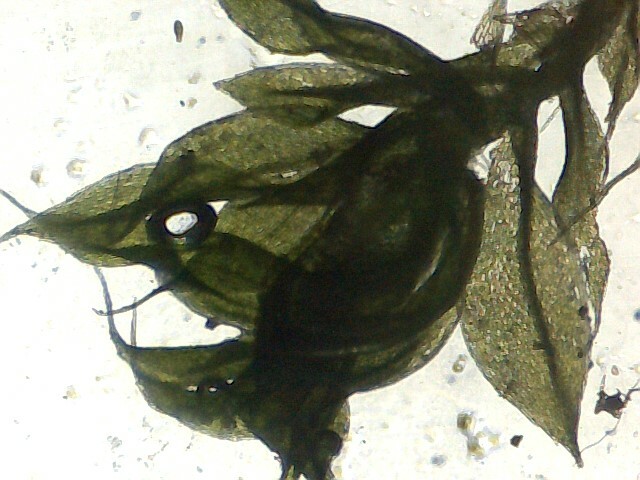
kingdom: Plantae
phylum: Bryophyta
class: Bryopsida
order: Bryales
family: Bryaceae
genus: Rosulabryum
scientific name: Rosulabryum moravicum
